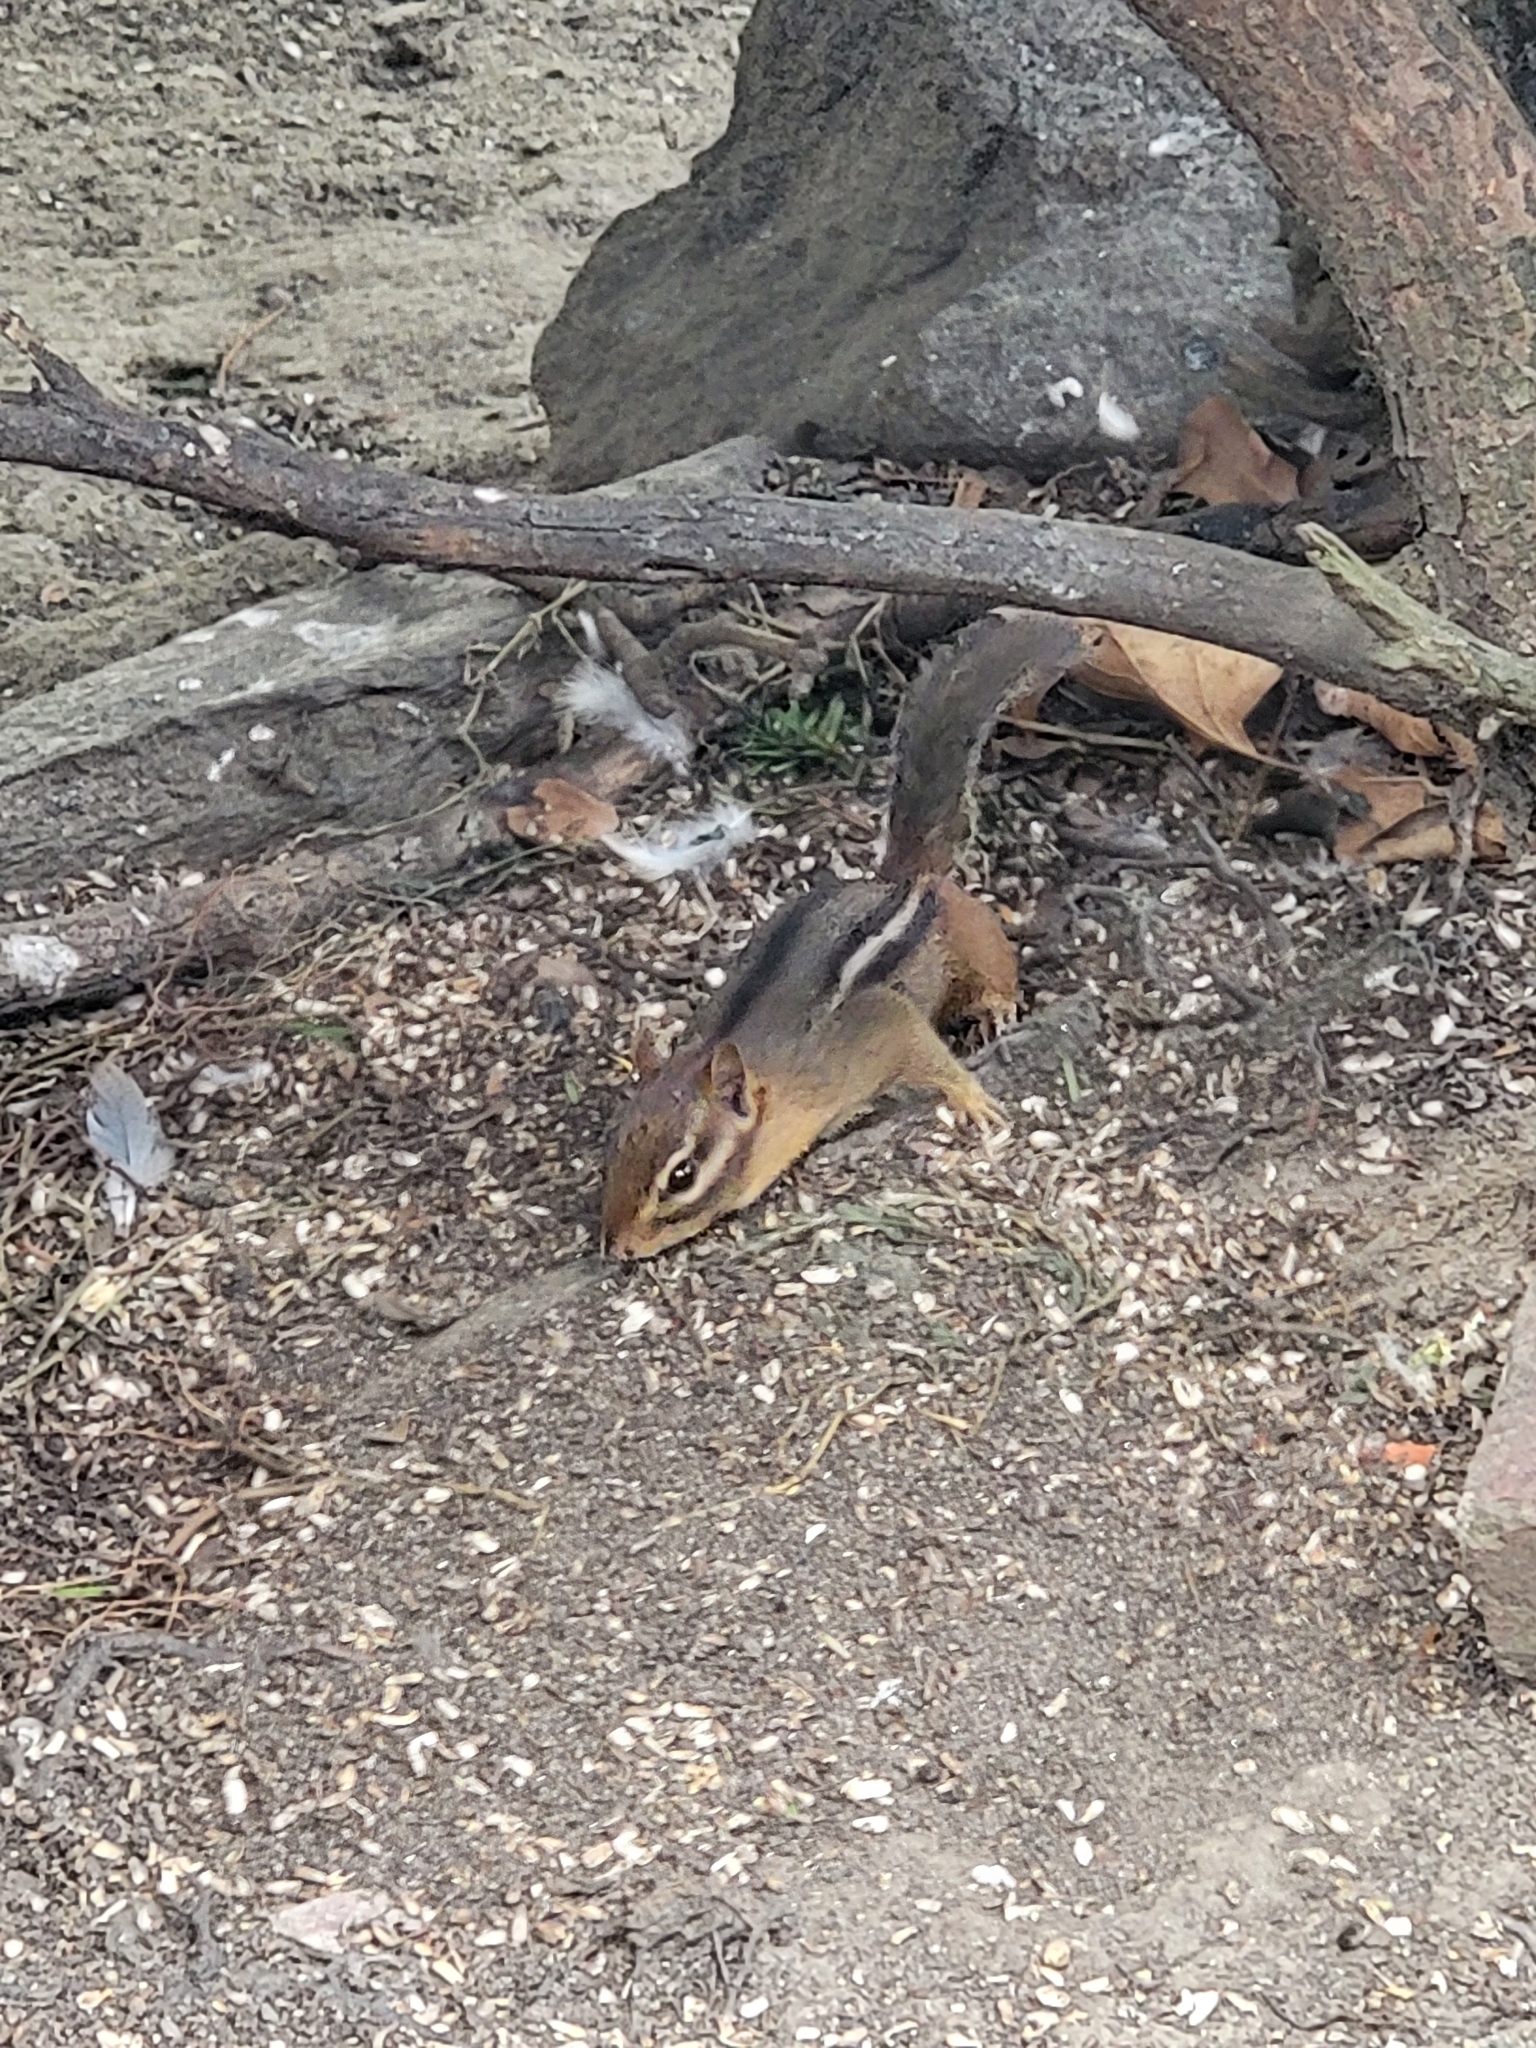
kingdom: Animalia
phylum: Chordata
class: Mammalia
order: Rodentia
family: Sciuridae
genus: Tamias
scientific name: Tamias striatus
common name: Eastern chipmunk
